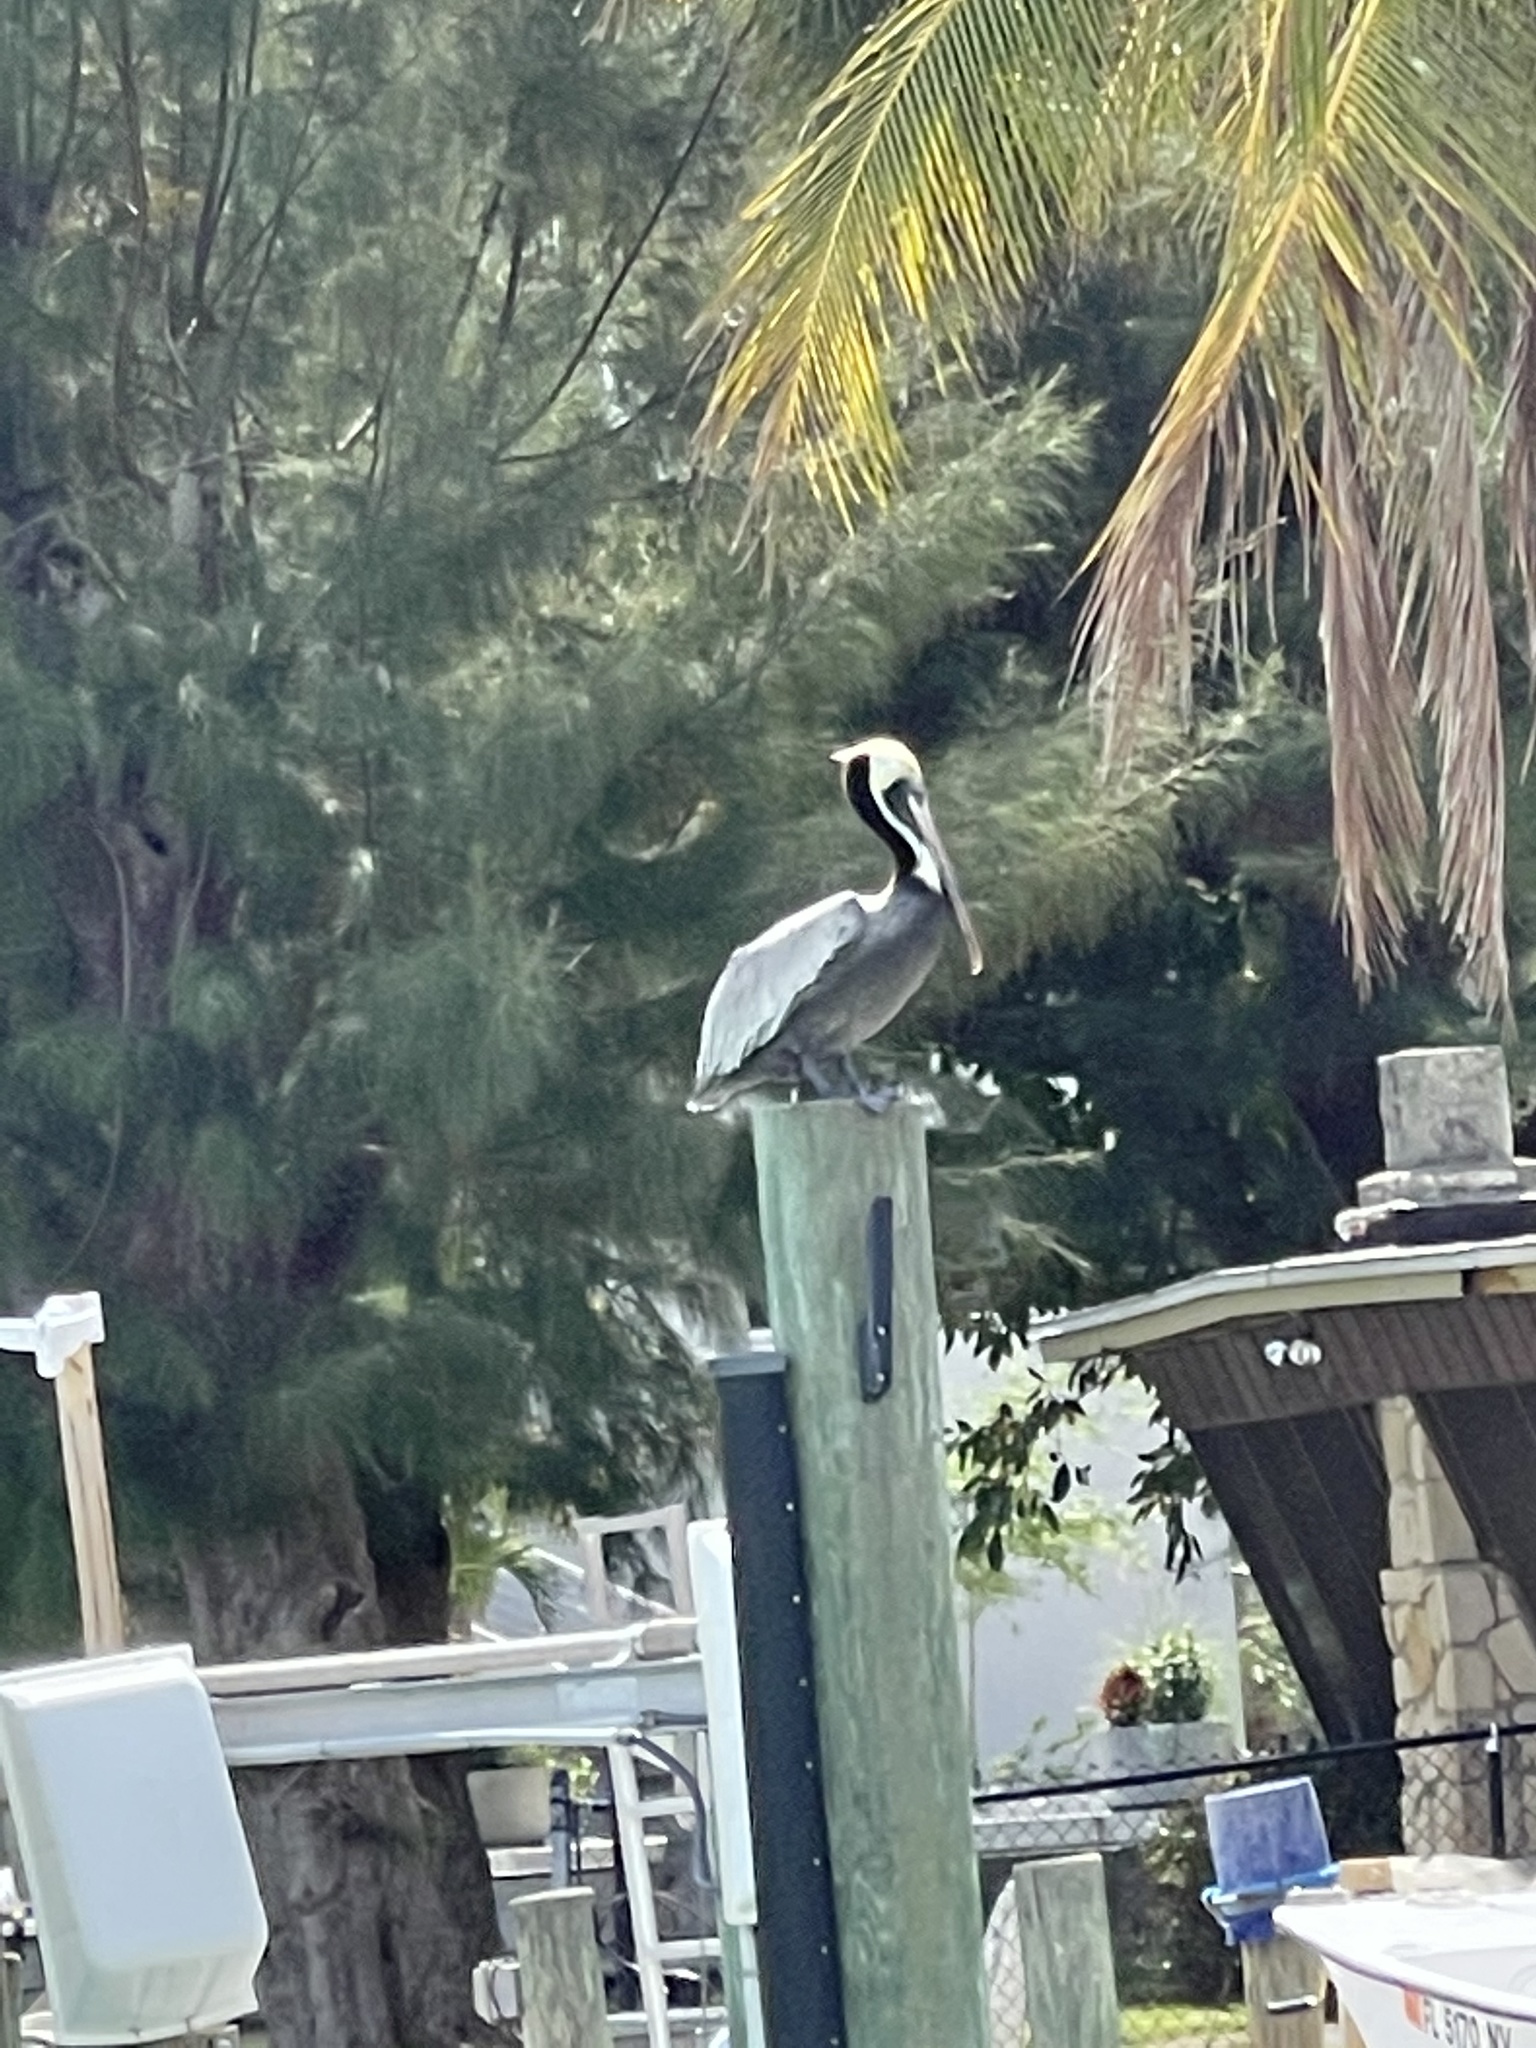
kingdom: Animalia
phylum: Chordata
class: Aves
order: Pelecaniformes
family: Pelecanidae
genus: Pelecanus
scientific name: Pelecanus occidentalis
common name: Brown pelican
